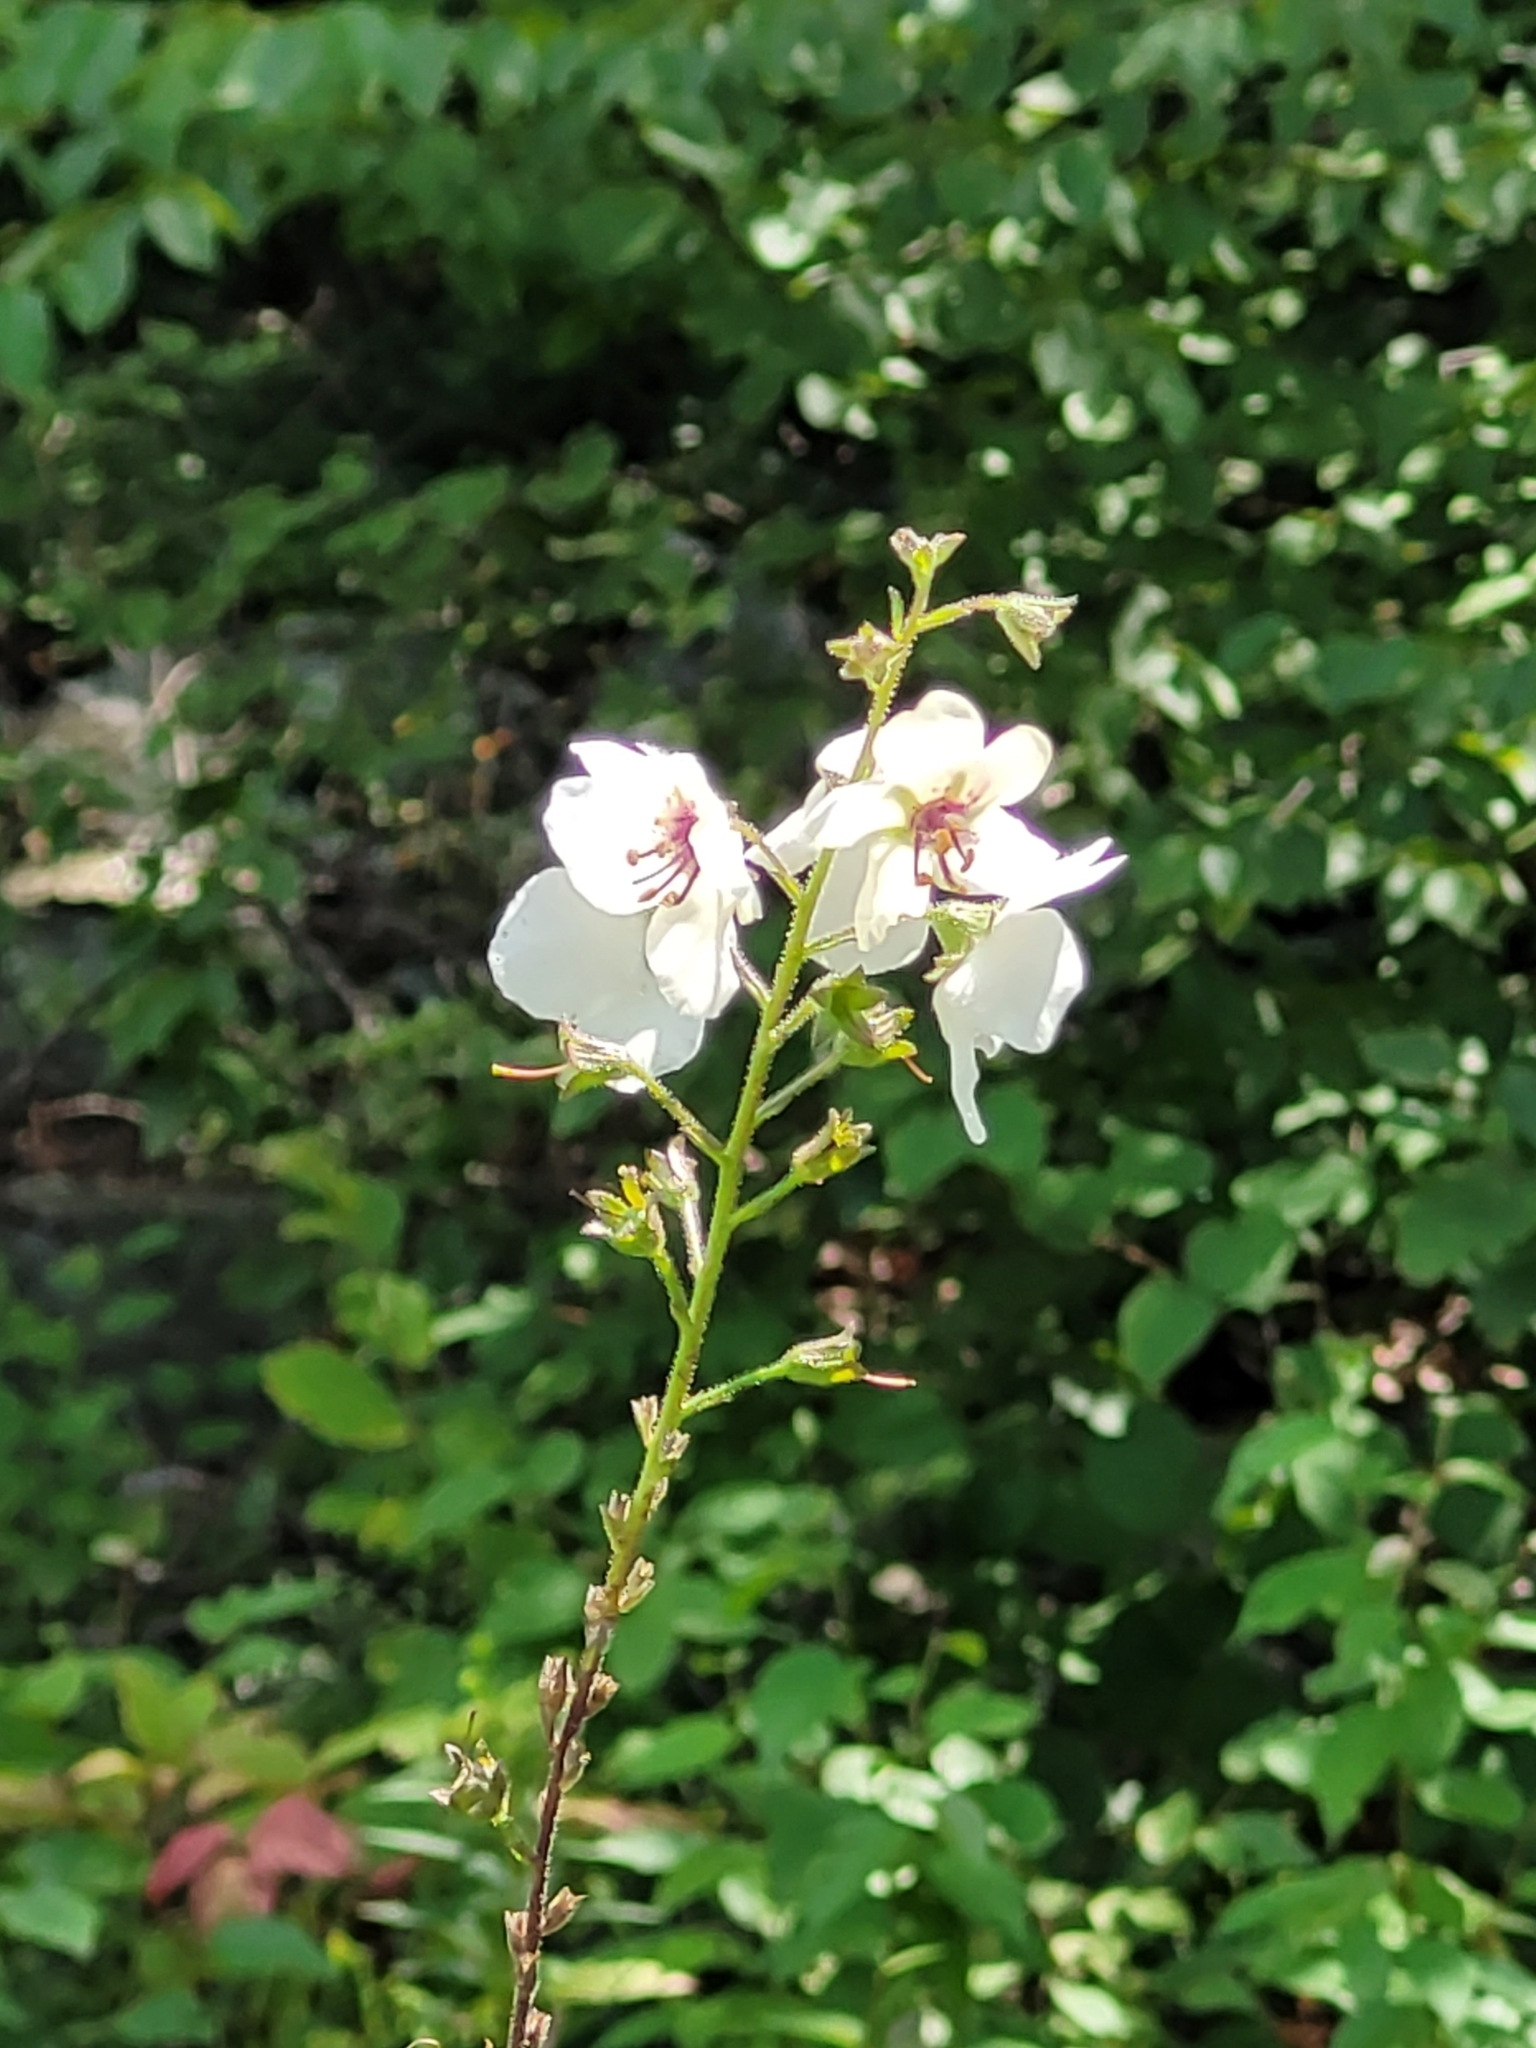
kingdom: Plantae
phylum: Tracheophyta
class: Magnoliopsida
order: Lamiales
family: Scrophulariaceae
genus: Verbascum
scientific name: Verbascum blattaria
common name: Moth mullein
